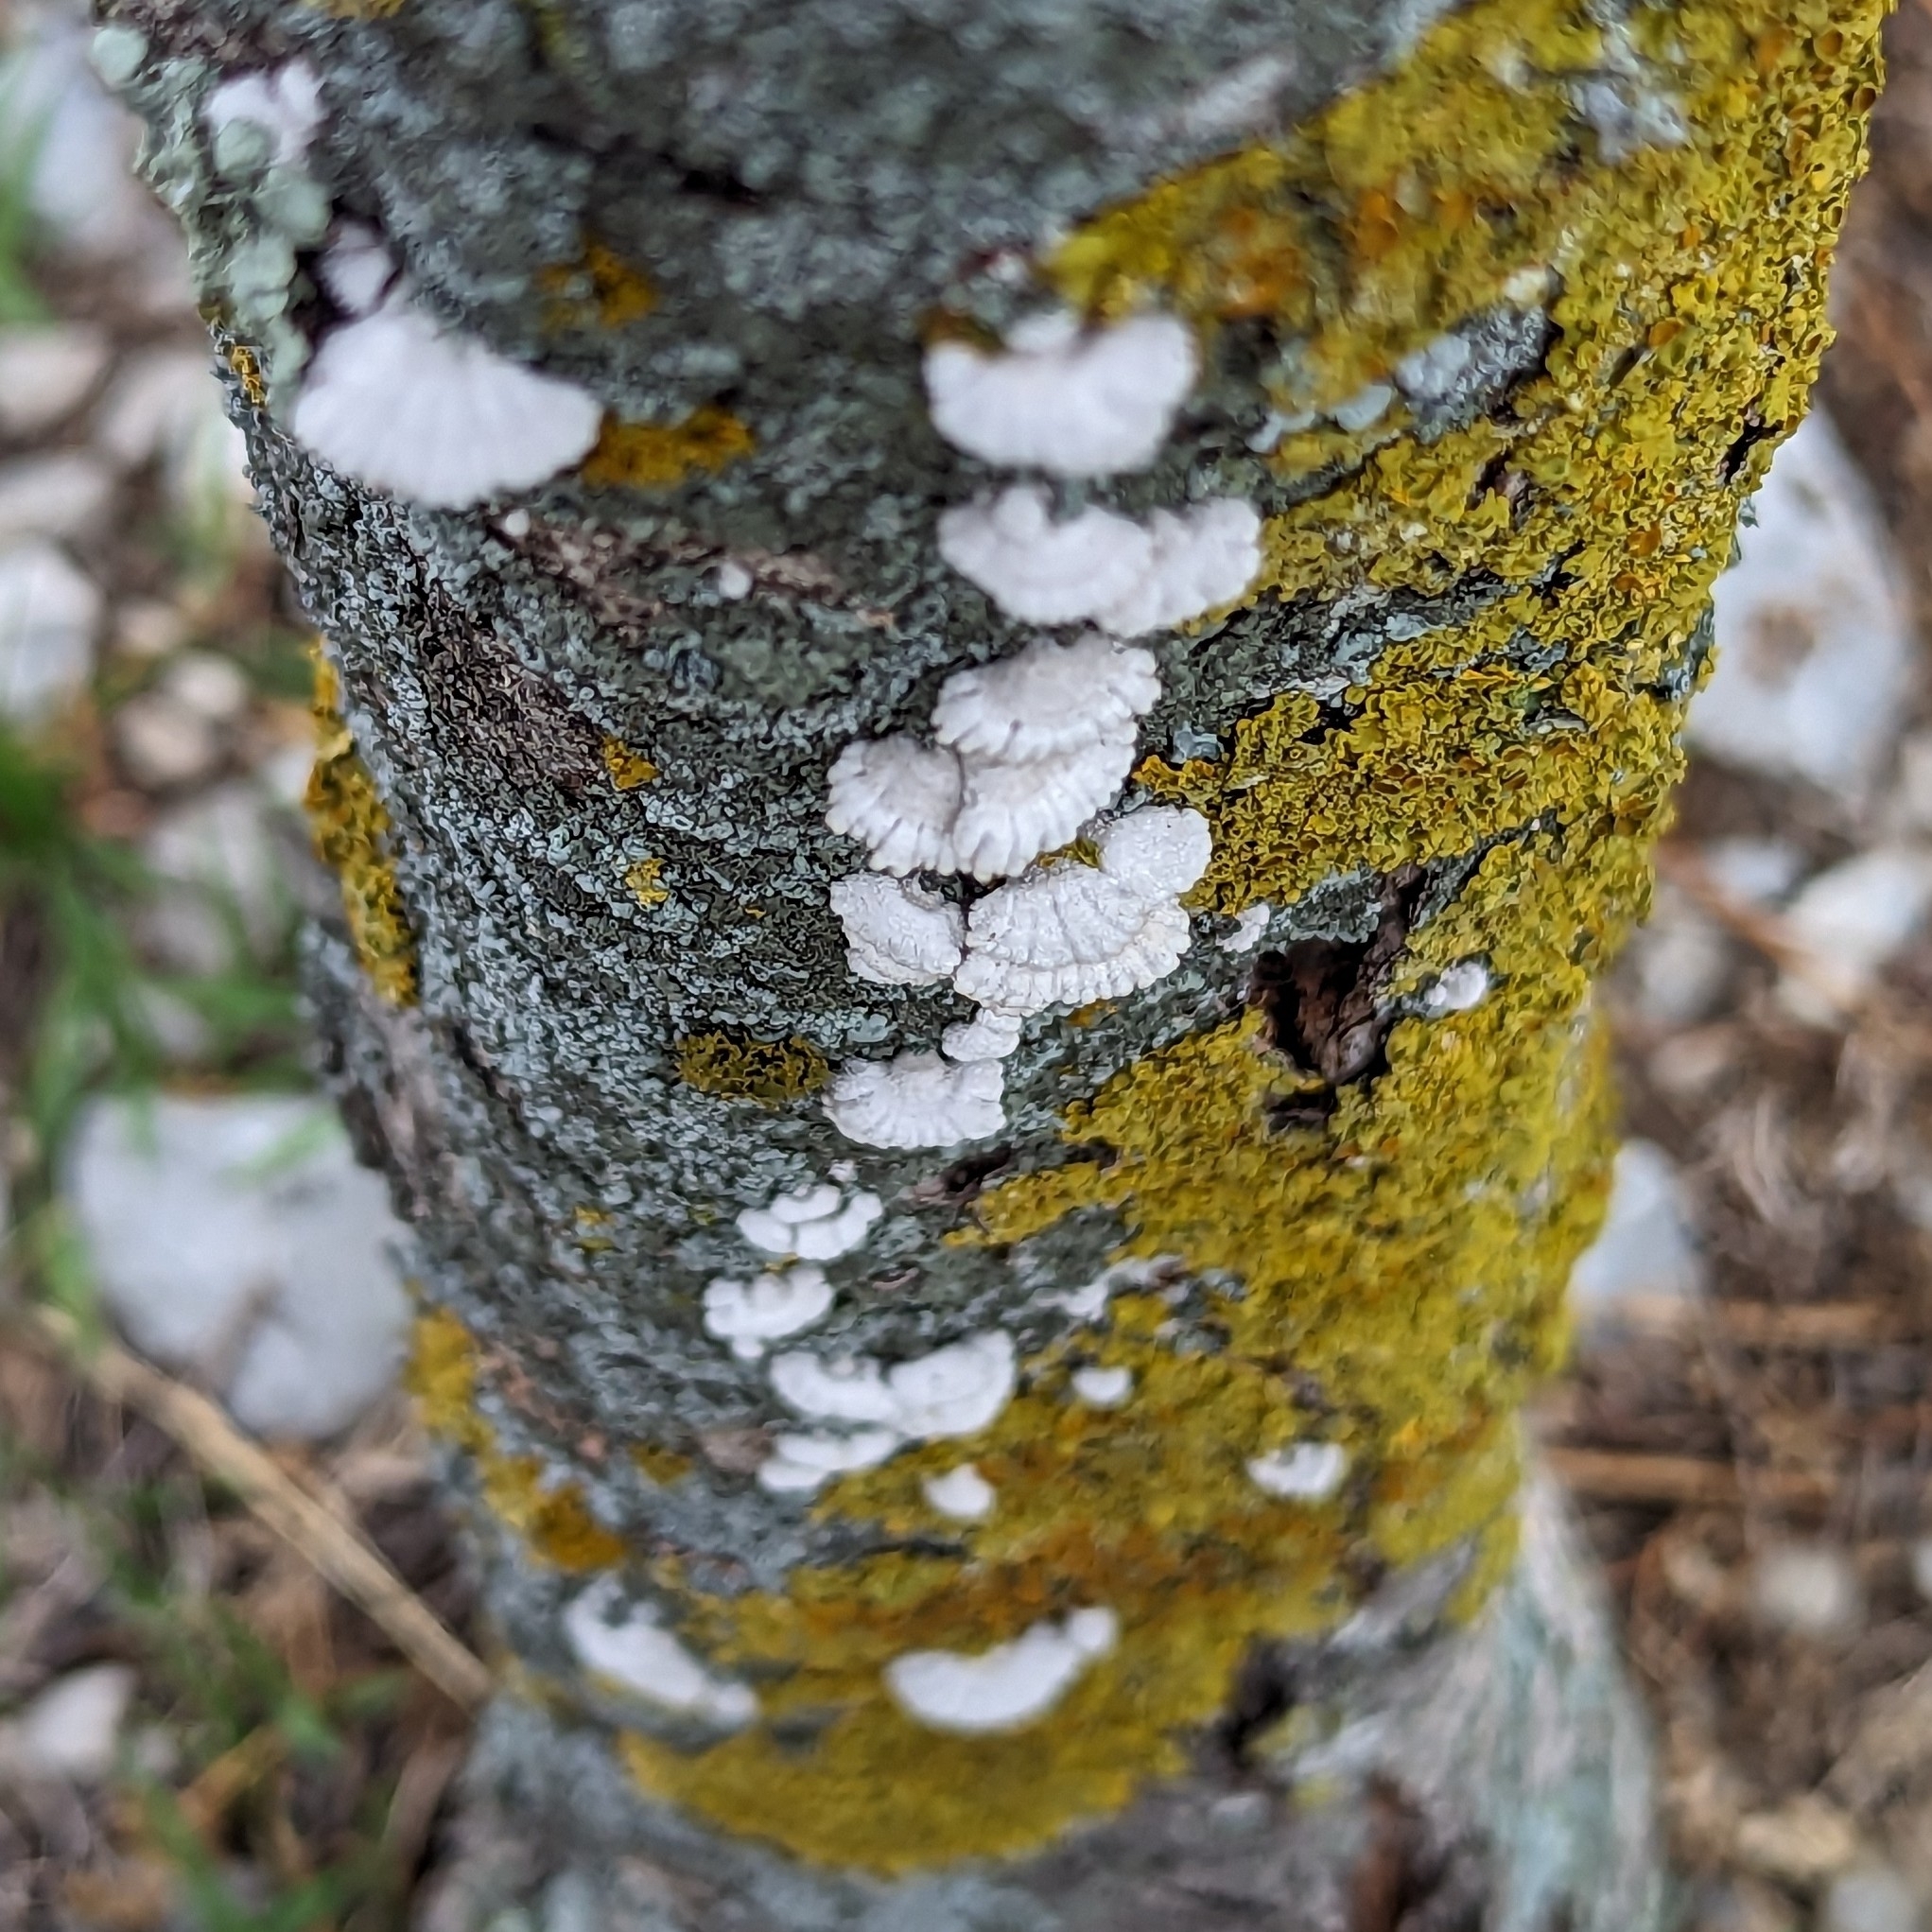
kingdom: Fungi
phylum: Basidiomycota
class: Agaricomycetes
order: Agaricales
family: Schizophyllaceae
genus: Schizophyllum
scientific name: Schizophyllum commune
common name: Common porecrust
